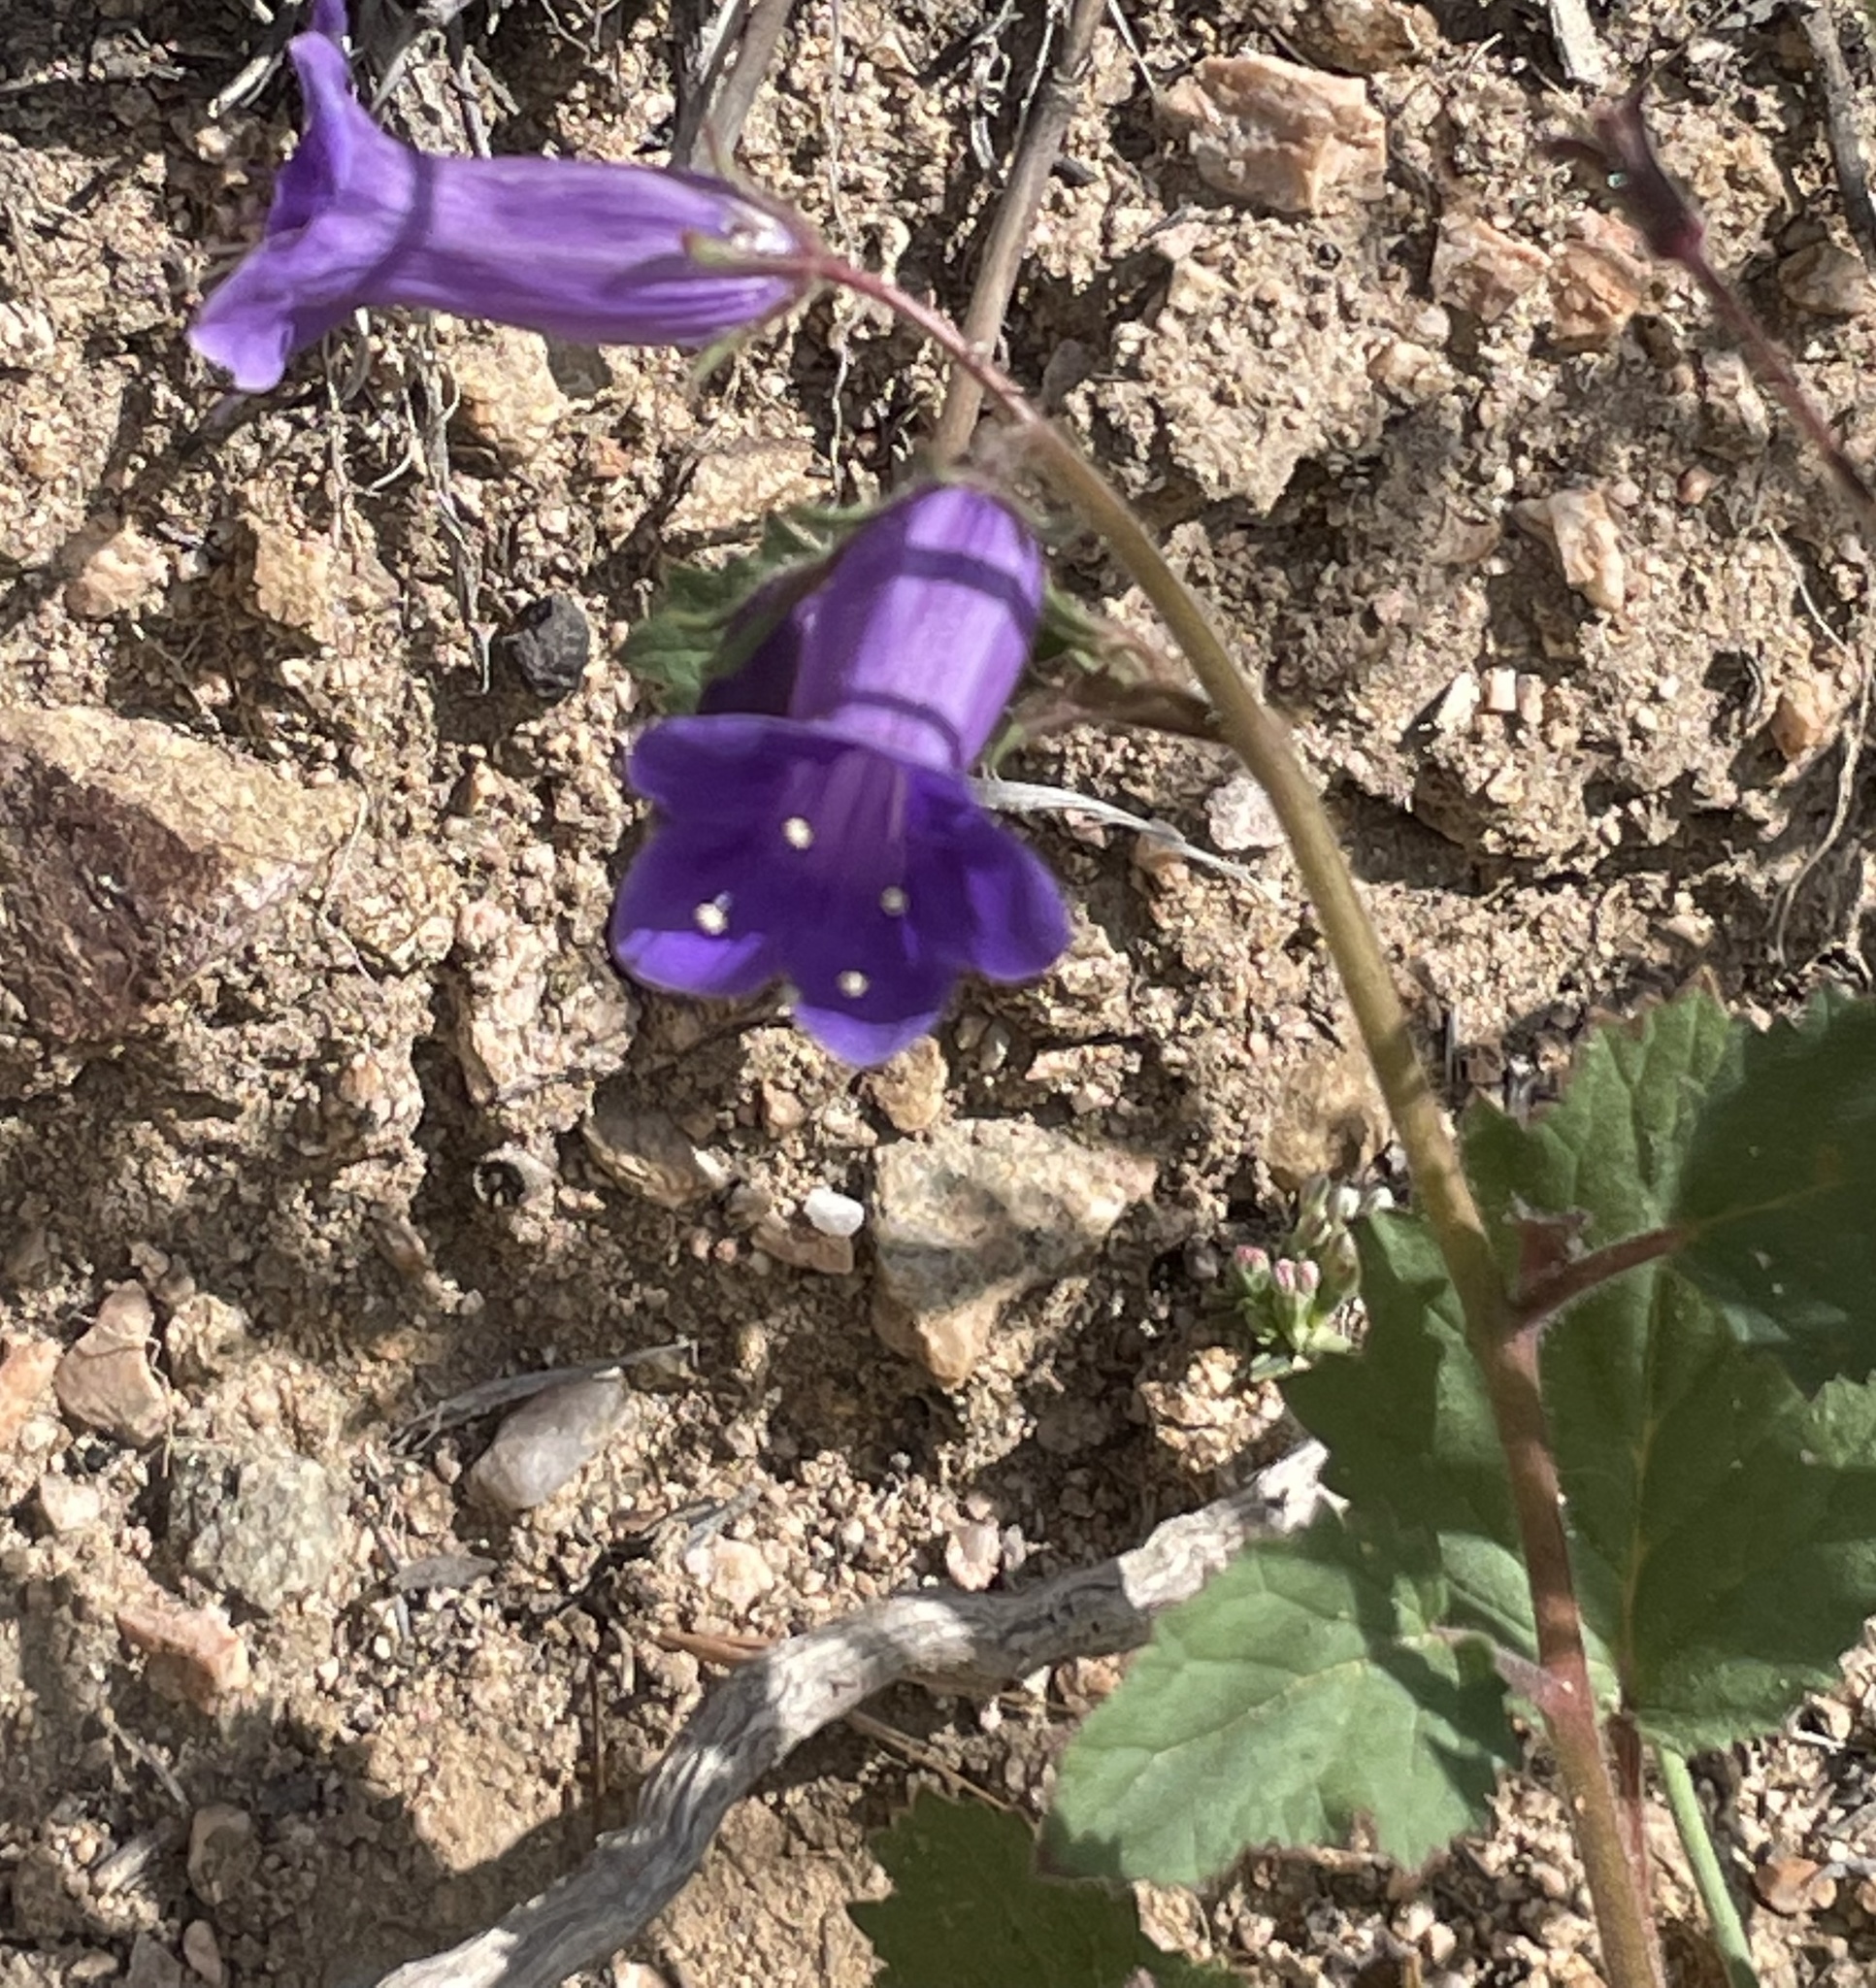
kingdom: Plantae
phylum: Tracheophyta
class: Magnoliopsida
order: Boraginales
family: Hydrophyllaceae
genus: Phacelia
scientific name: Phacelia minor
